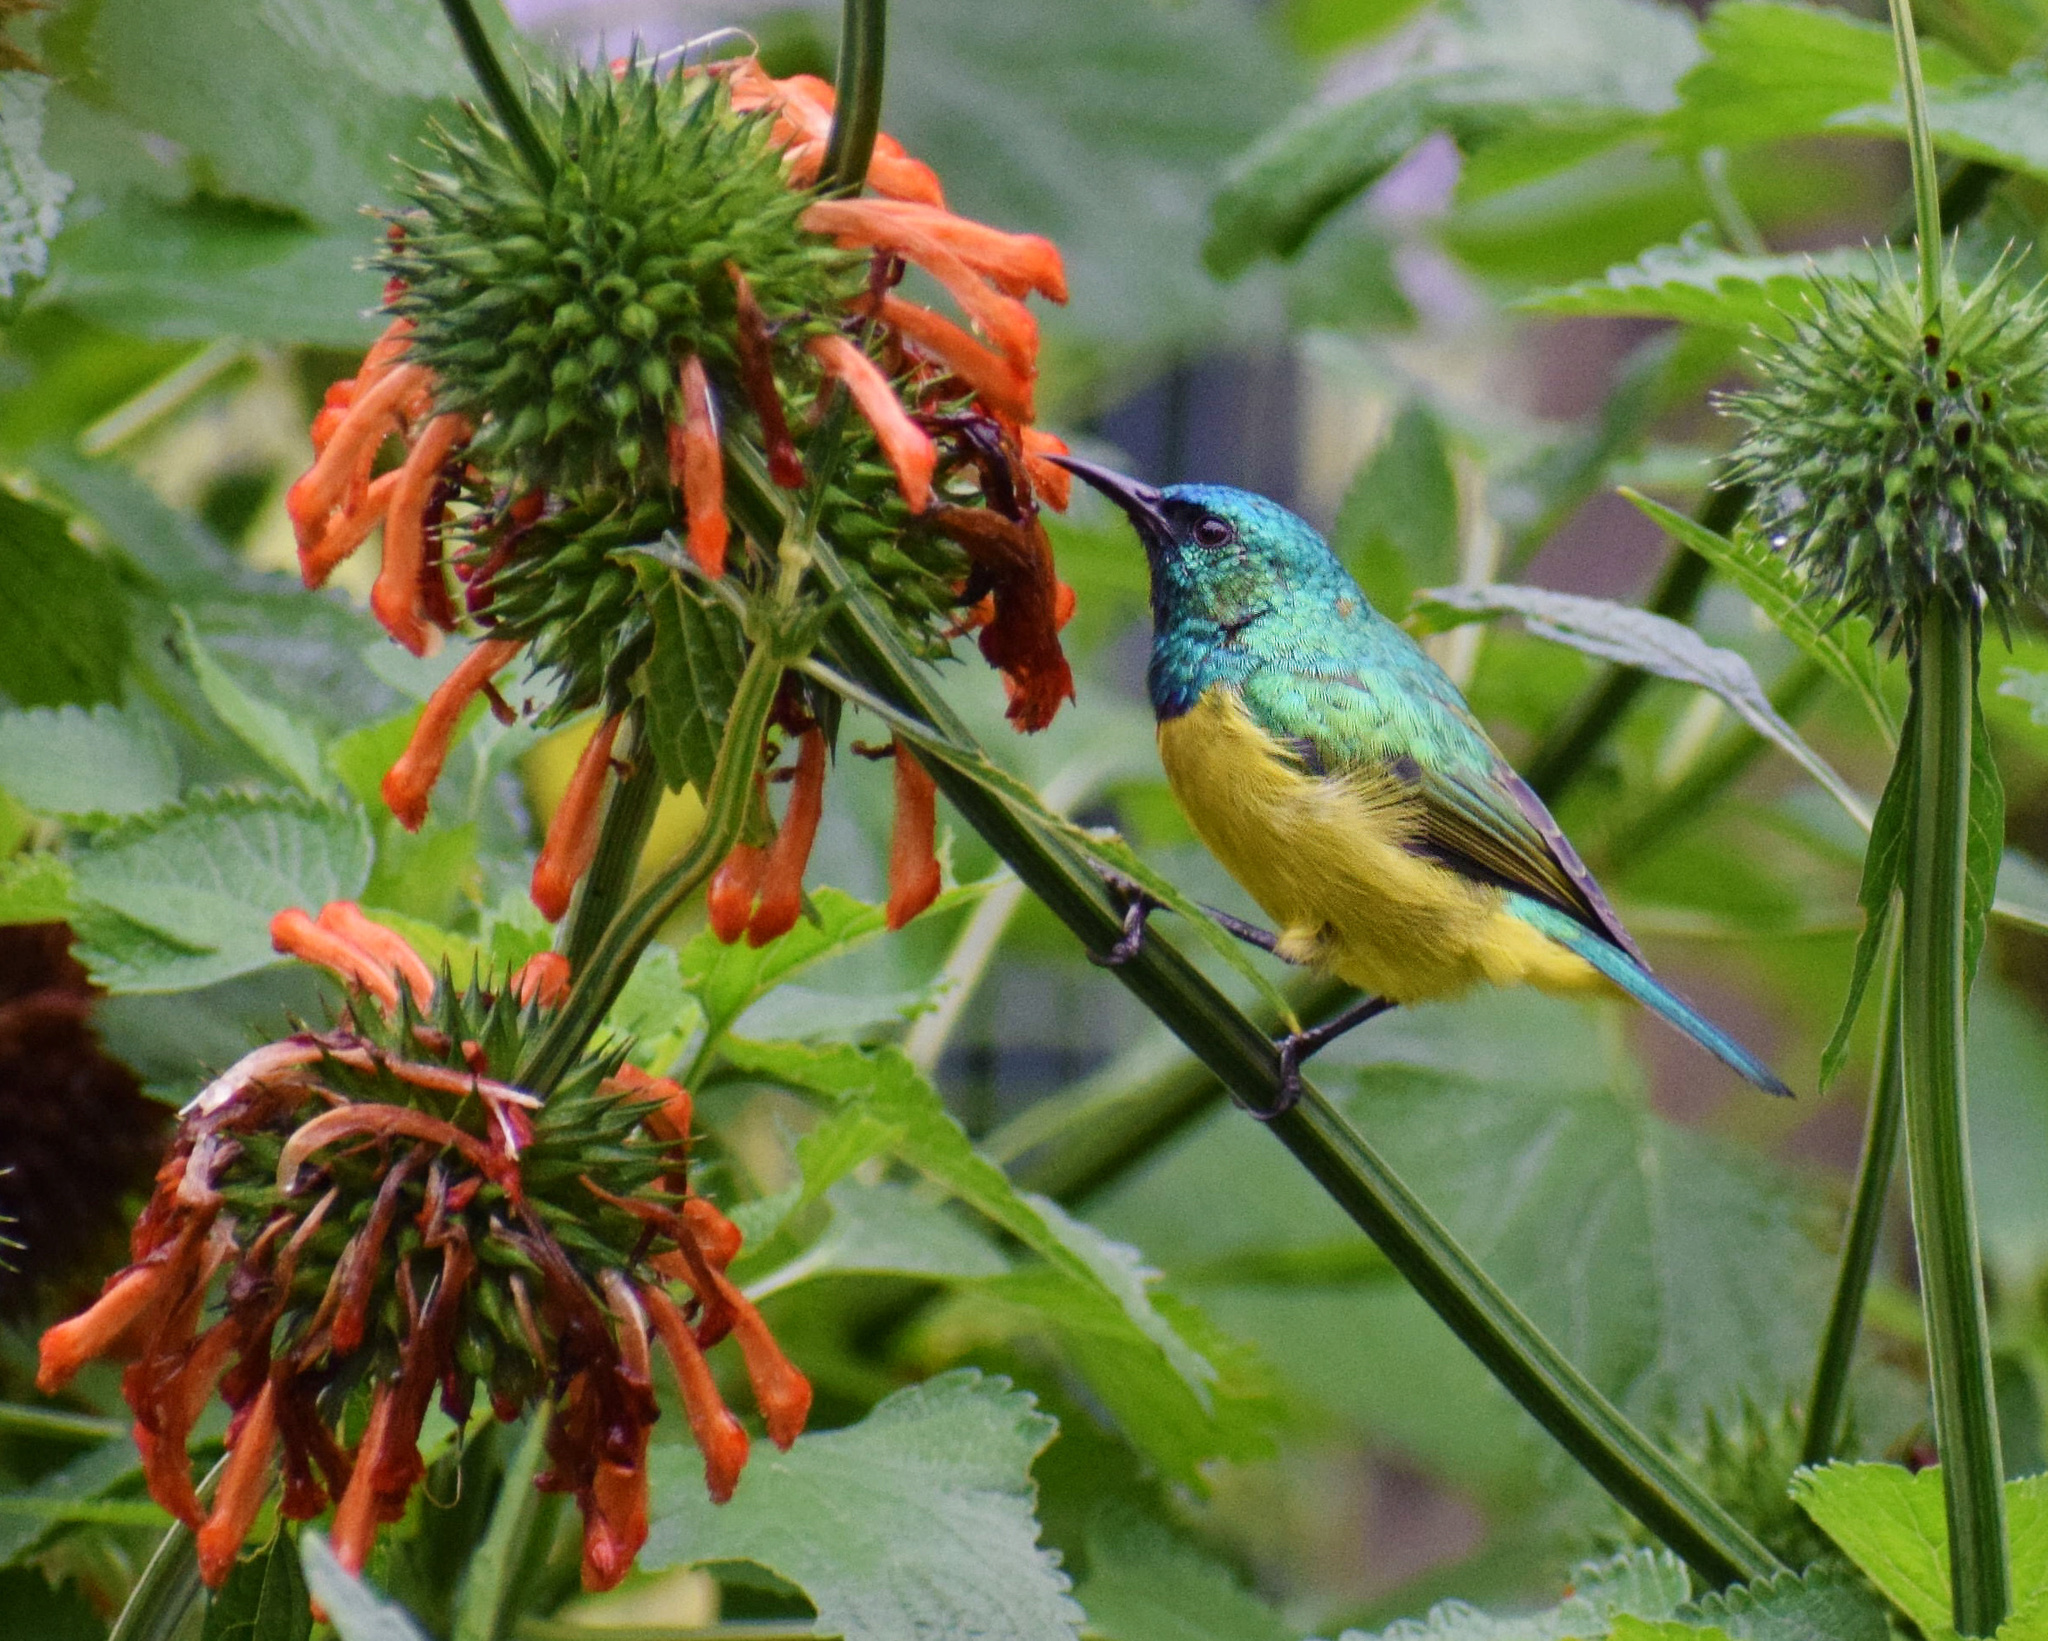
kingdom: Plantae
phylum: Tracheophyta
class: Magnoliopsida
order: Lamiales
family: Lamiaceae
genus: Leonotis
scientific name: Leonotis leonurus
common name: Lion's ear
